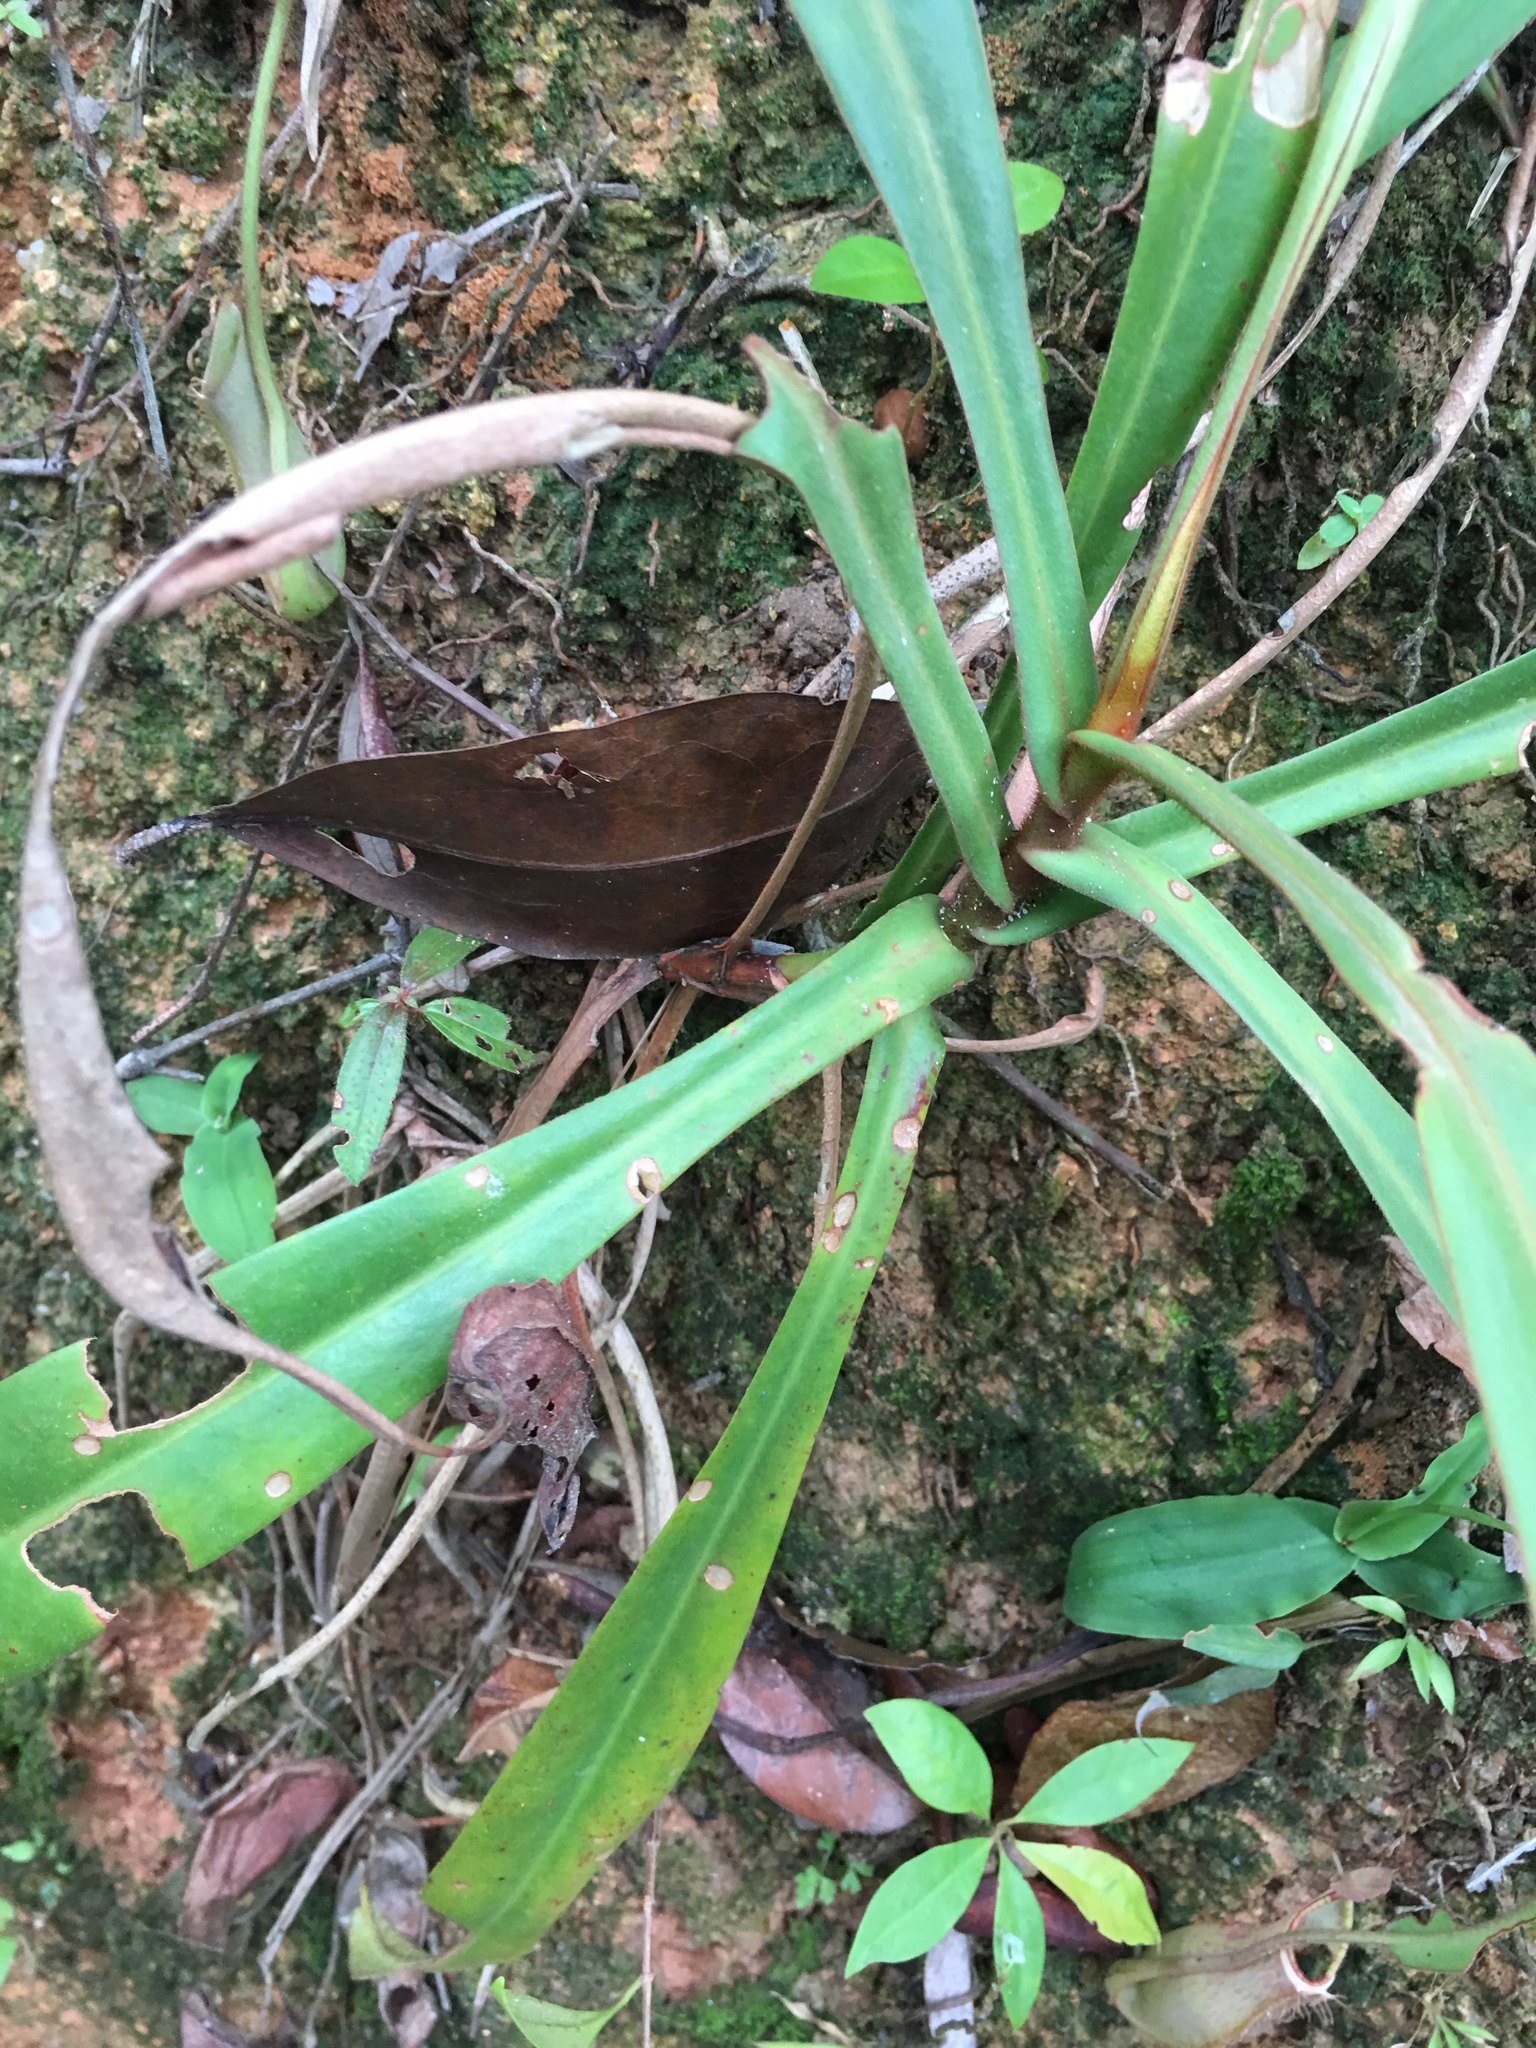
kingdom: Plantae
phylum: Tracheophyta
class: Magnoliopsida
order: Caryophyllales
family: Nepenthaceae
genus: Nepenthes
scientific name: Nepenthes albomarginata
